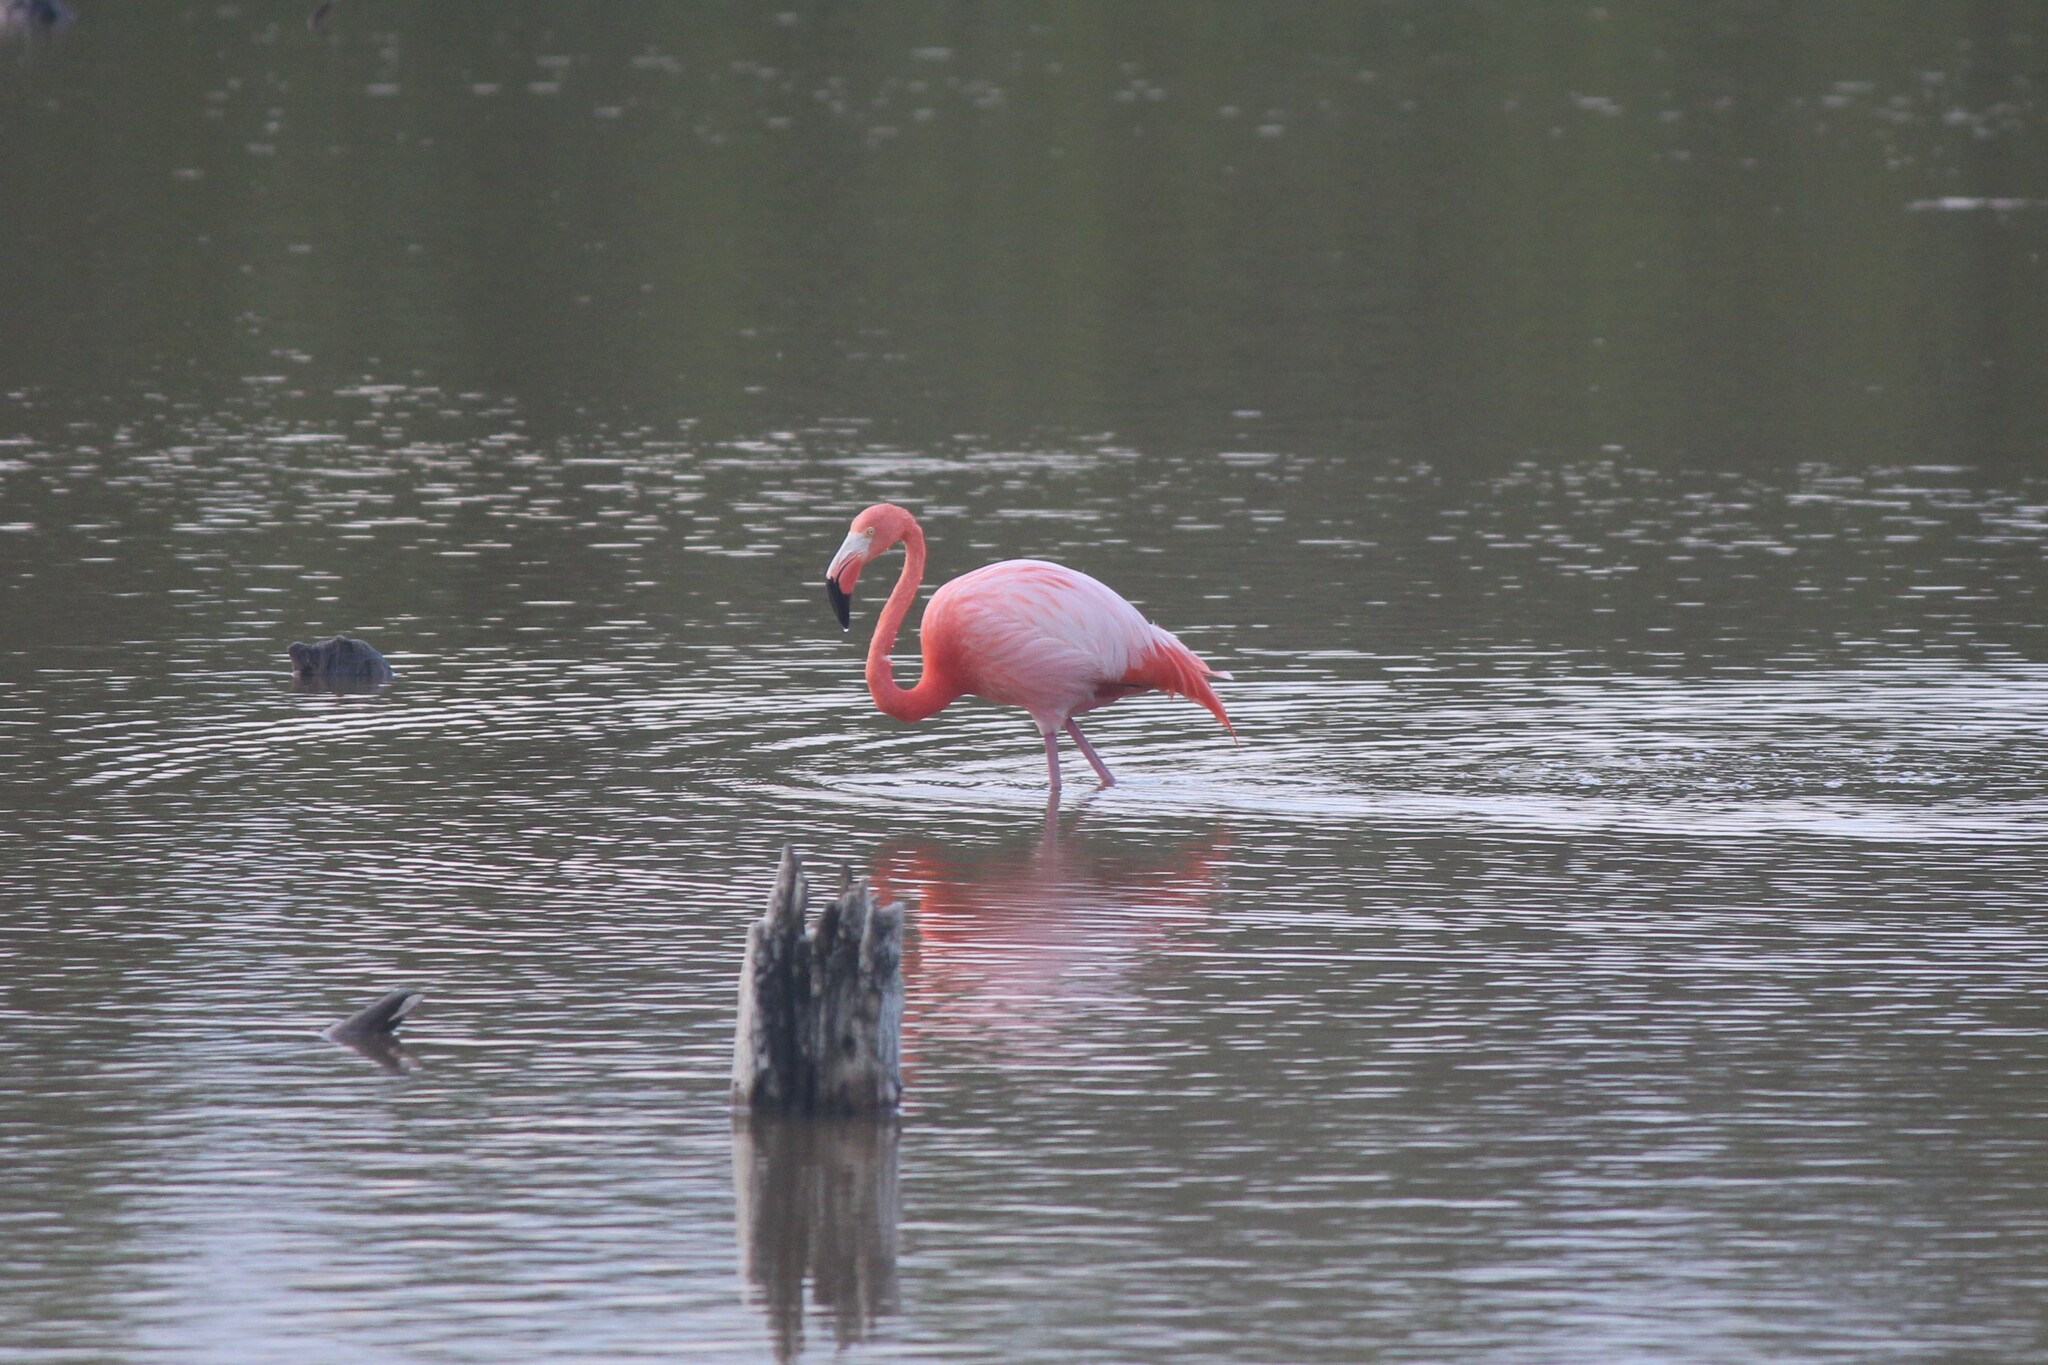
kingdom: Animalia
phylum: Chordata
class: Aves
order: Phoenicopteriformes
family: Phoenicopteridae
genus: Phoenicopterus
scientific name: Phoenicopterus ruber
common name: American flamingo
